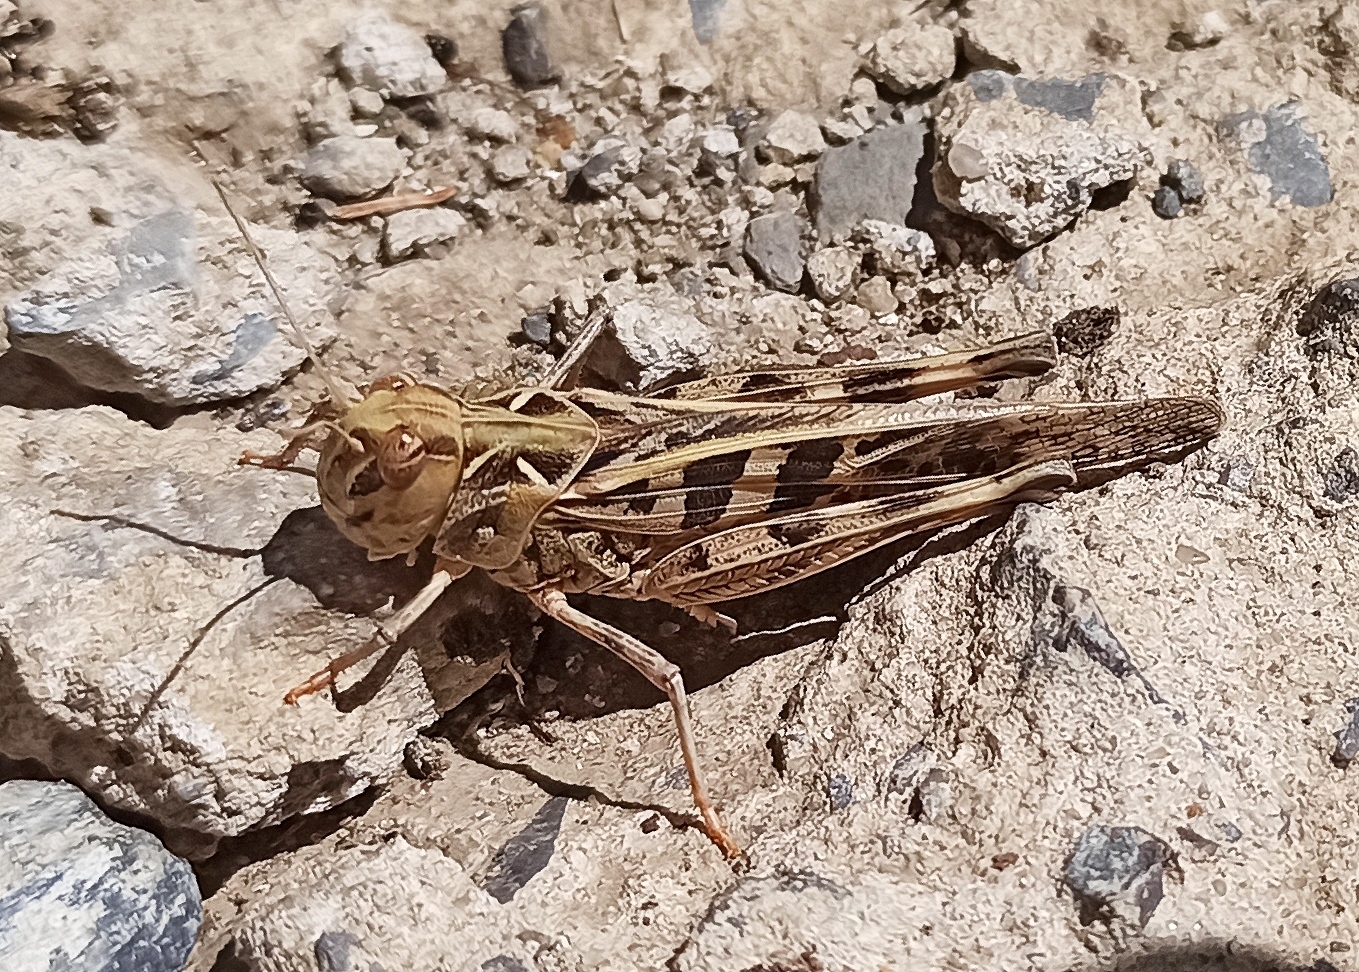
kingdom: Animalia
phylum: Arthropoda
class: Insecta
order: Orthoptera
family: Acrididae
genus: Oedaleus
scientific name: Oedaleus decorus
